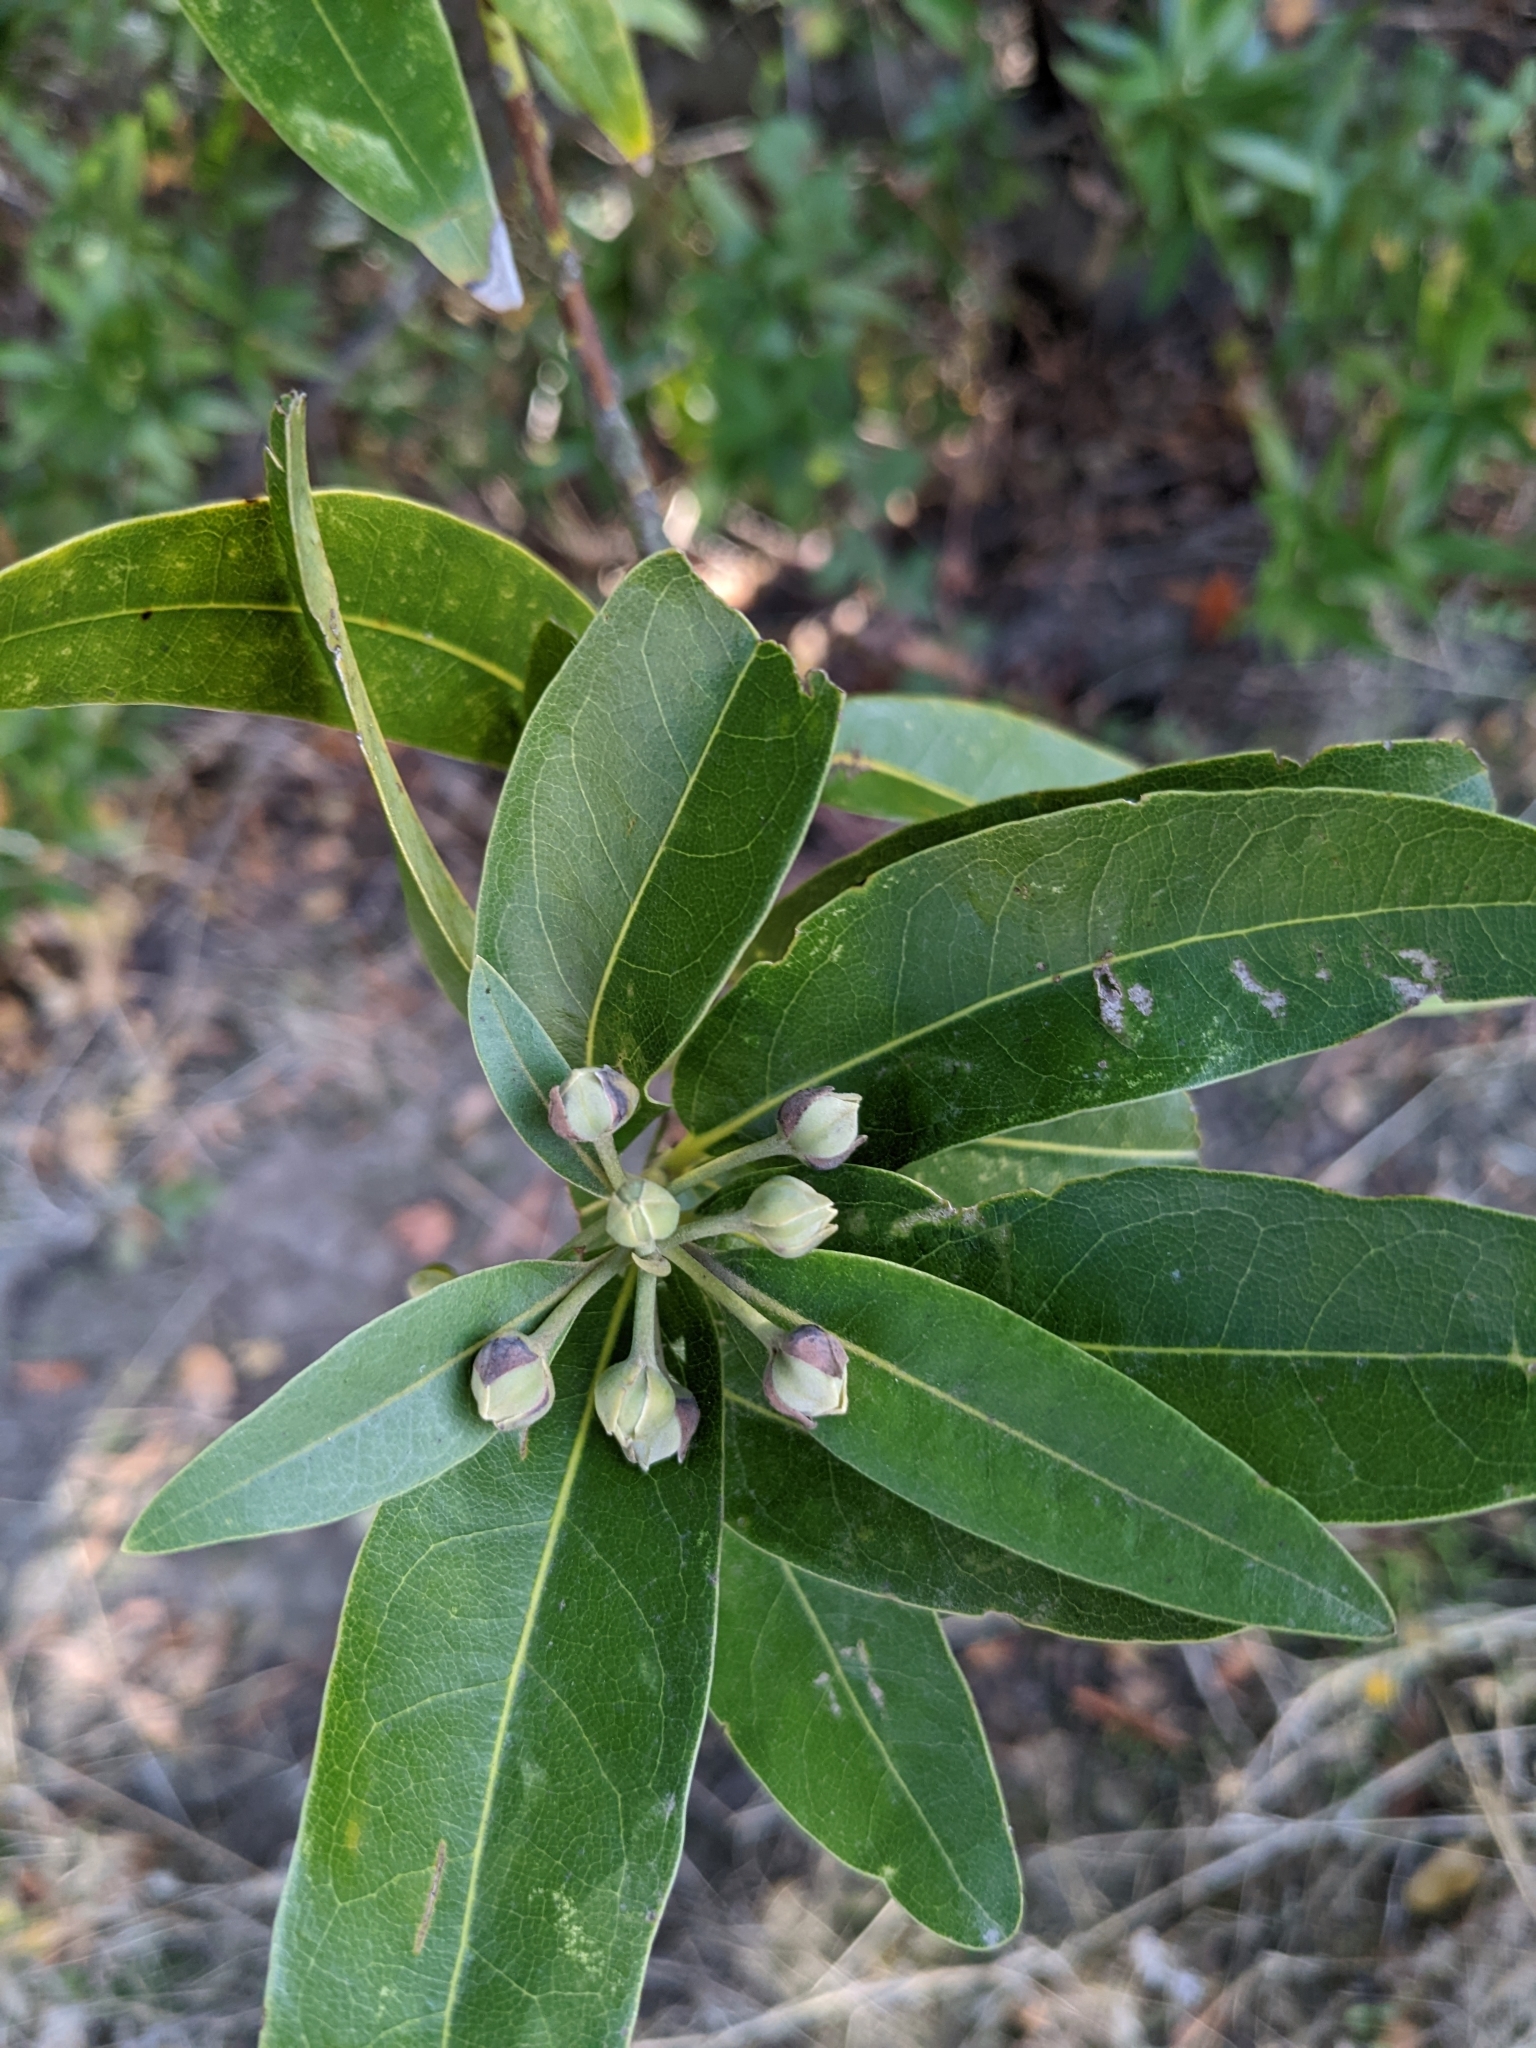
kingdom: Plantae
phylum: Tracheophyta
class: Magnoliopsida
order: Laurales
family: Lauraceae
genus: Umbellularia
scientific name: Umbellularia californica
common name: California bay
